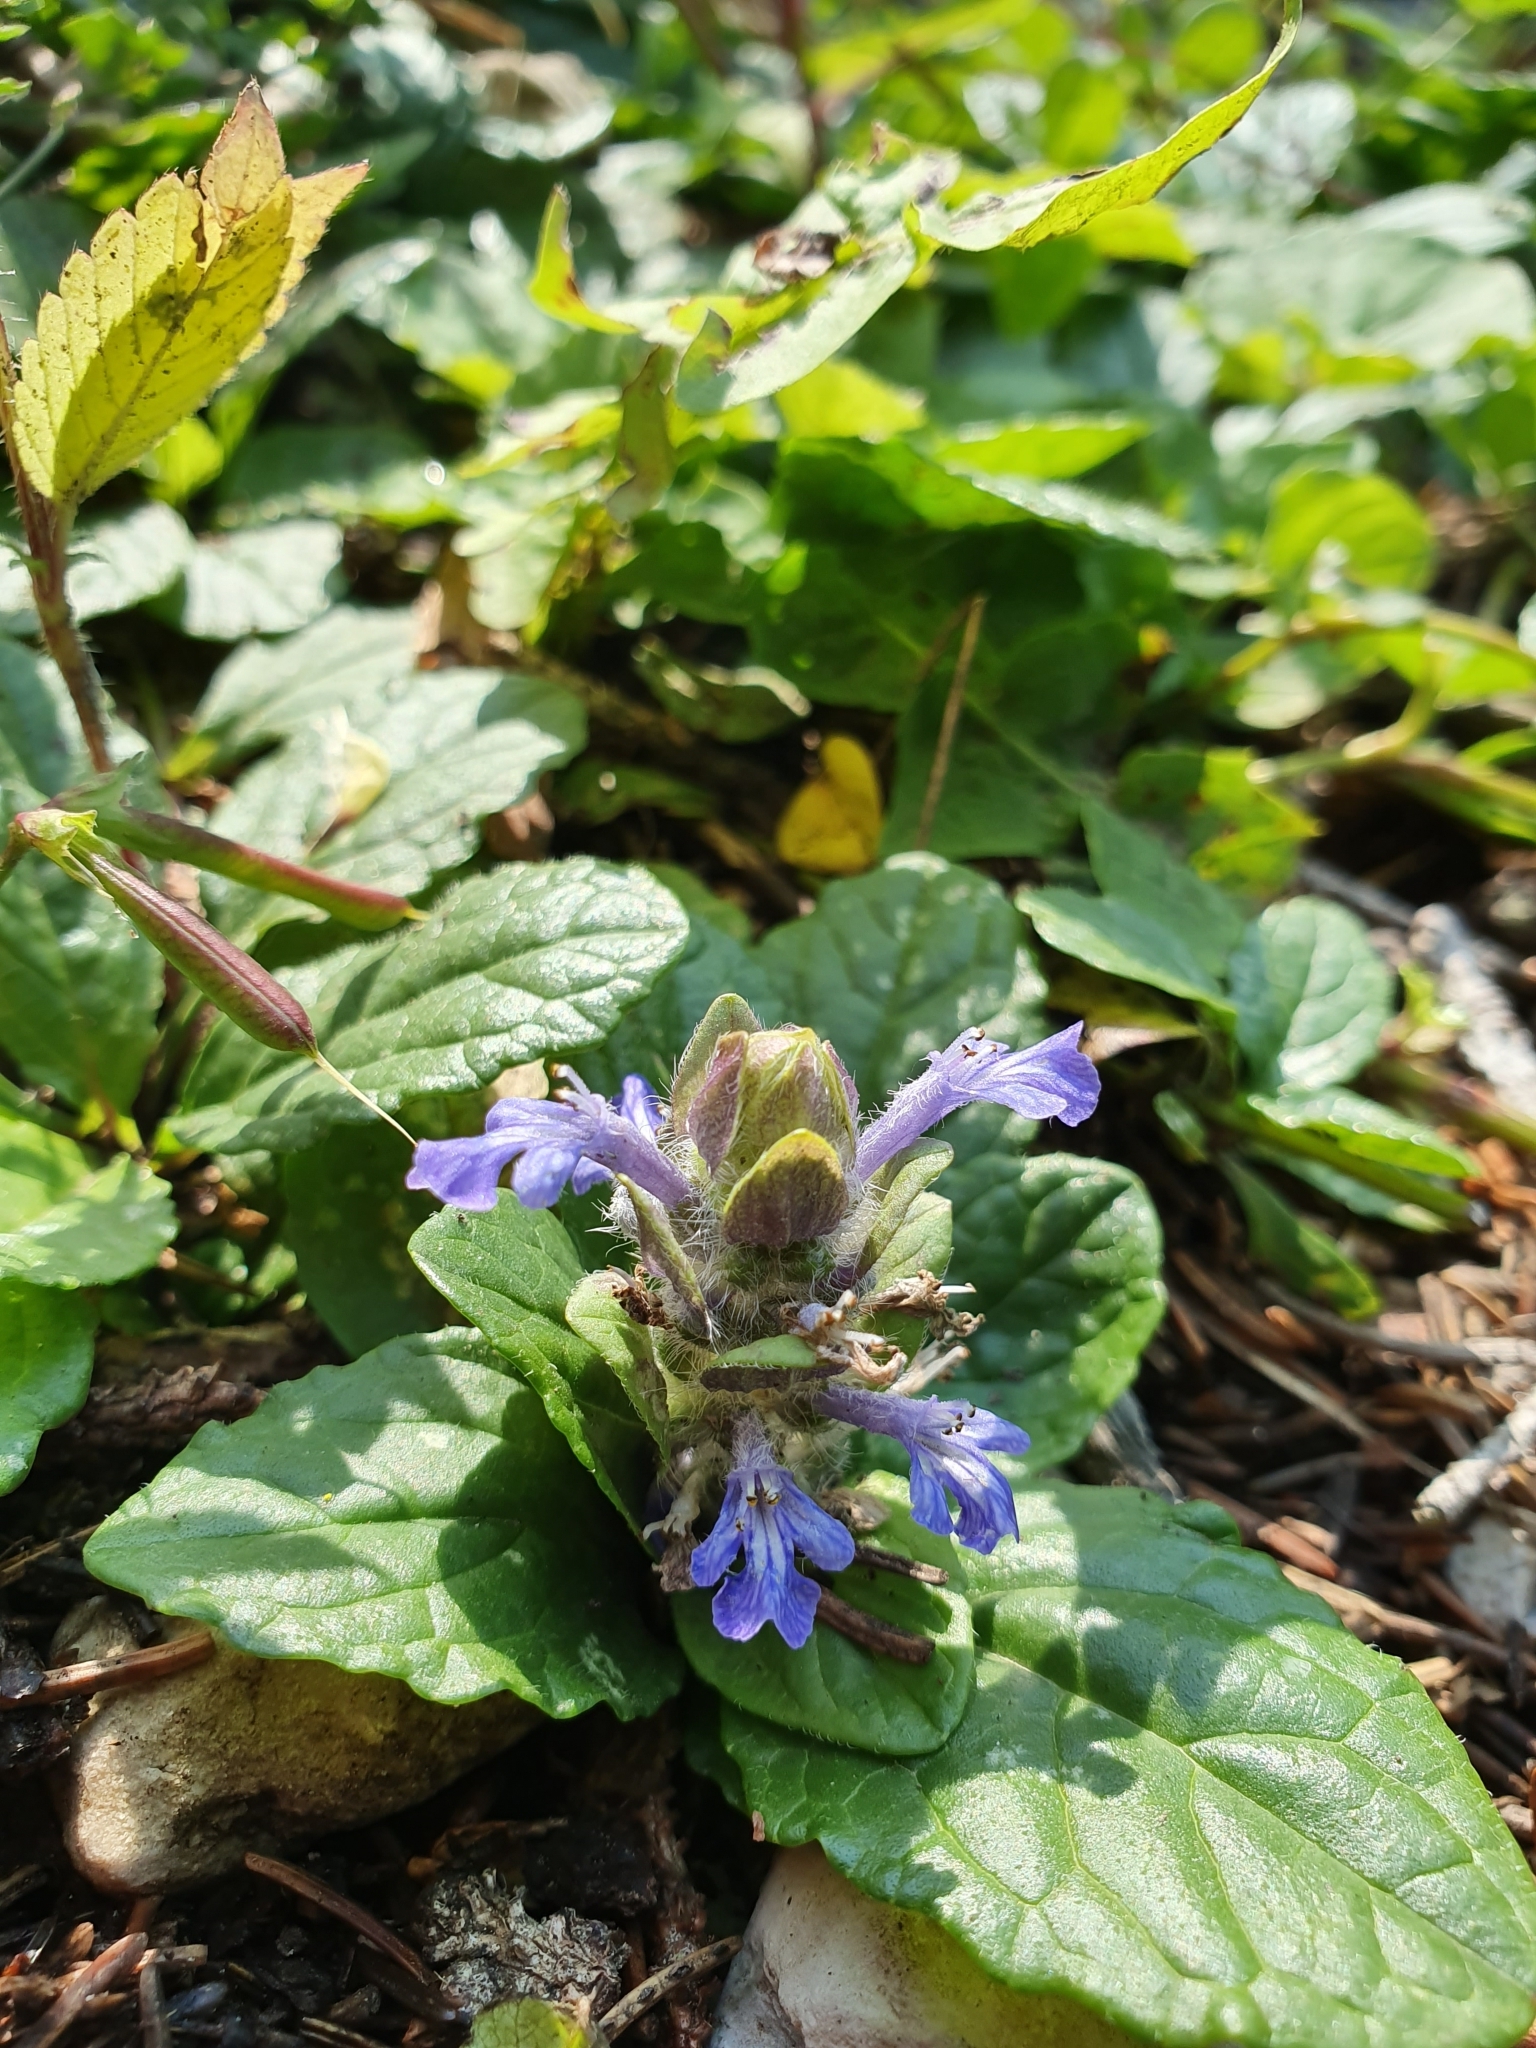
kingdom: Plantae
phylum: Tracheophyta
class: Magnoliopsida
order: Lamiales
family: Lamiaceae
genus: Ajuga
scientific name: Ajuga reptans
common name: Bugle
